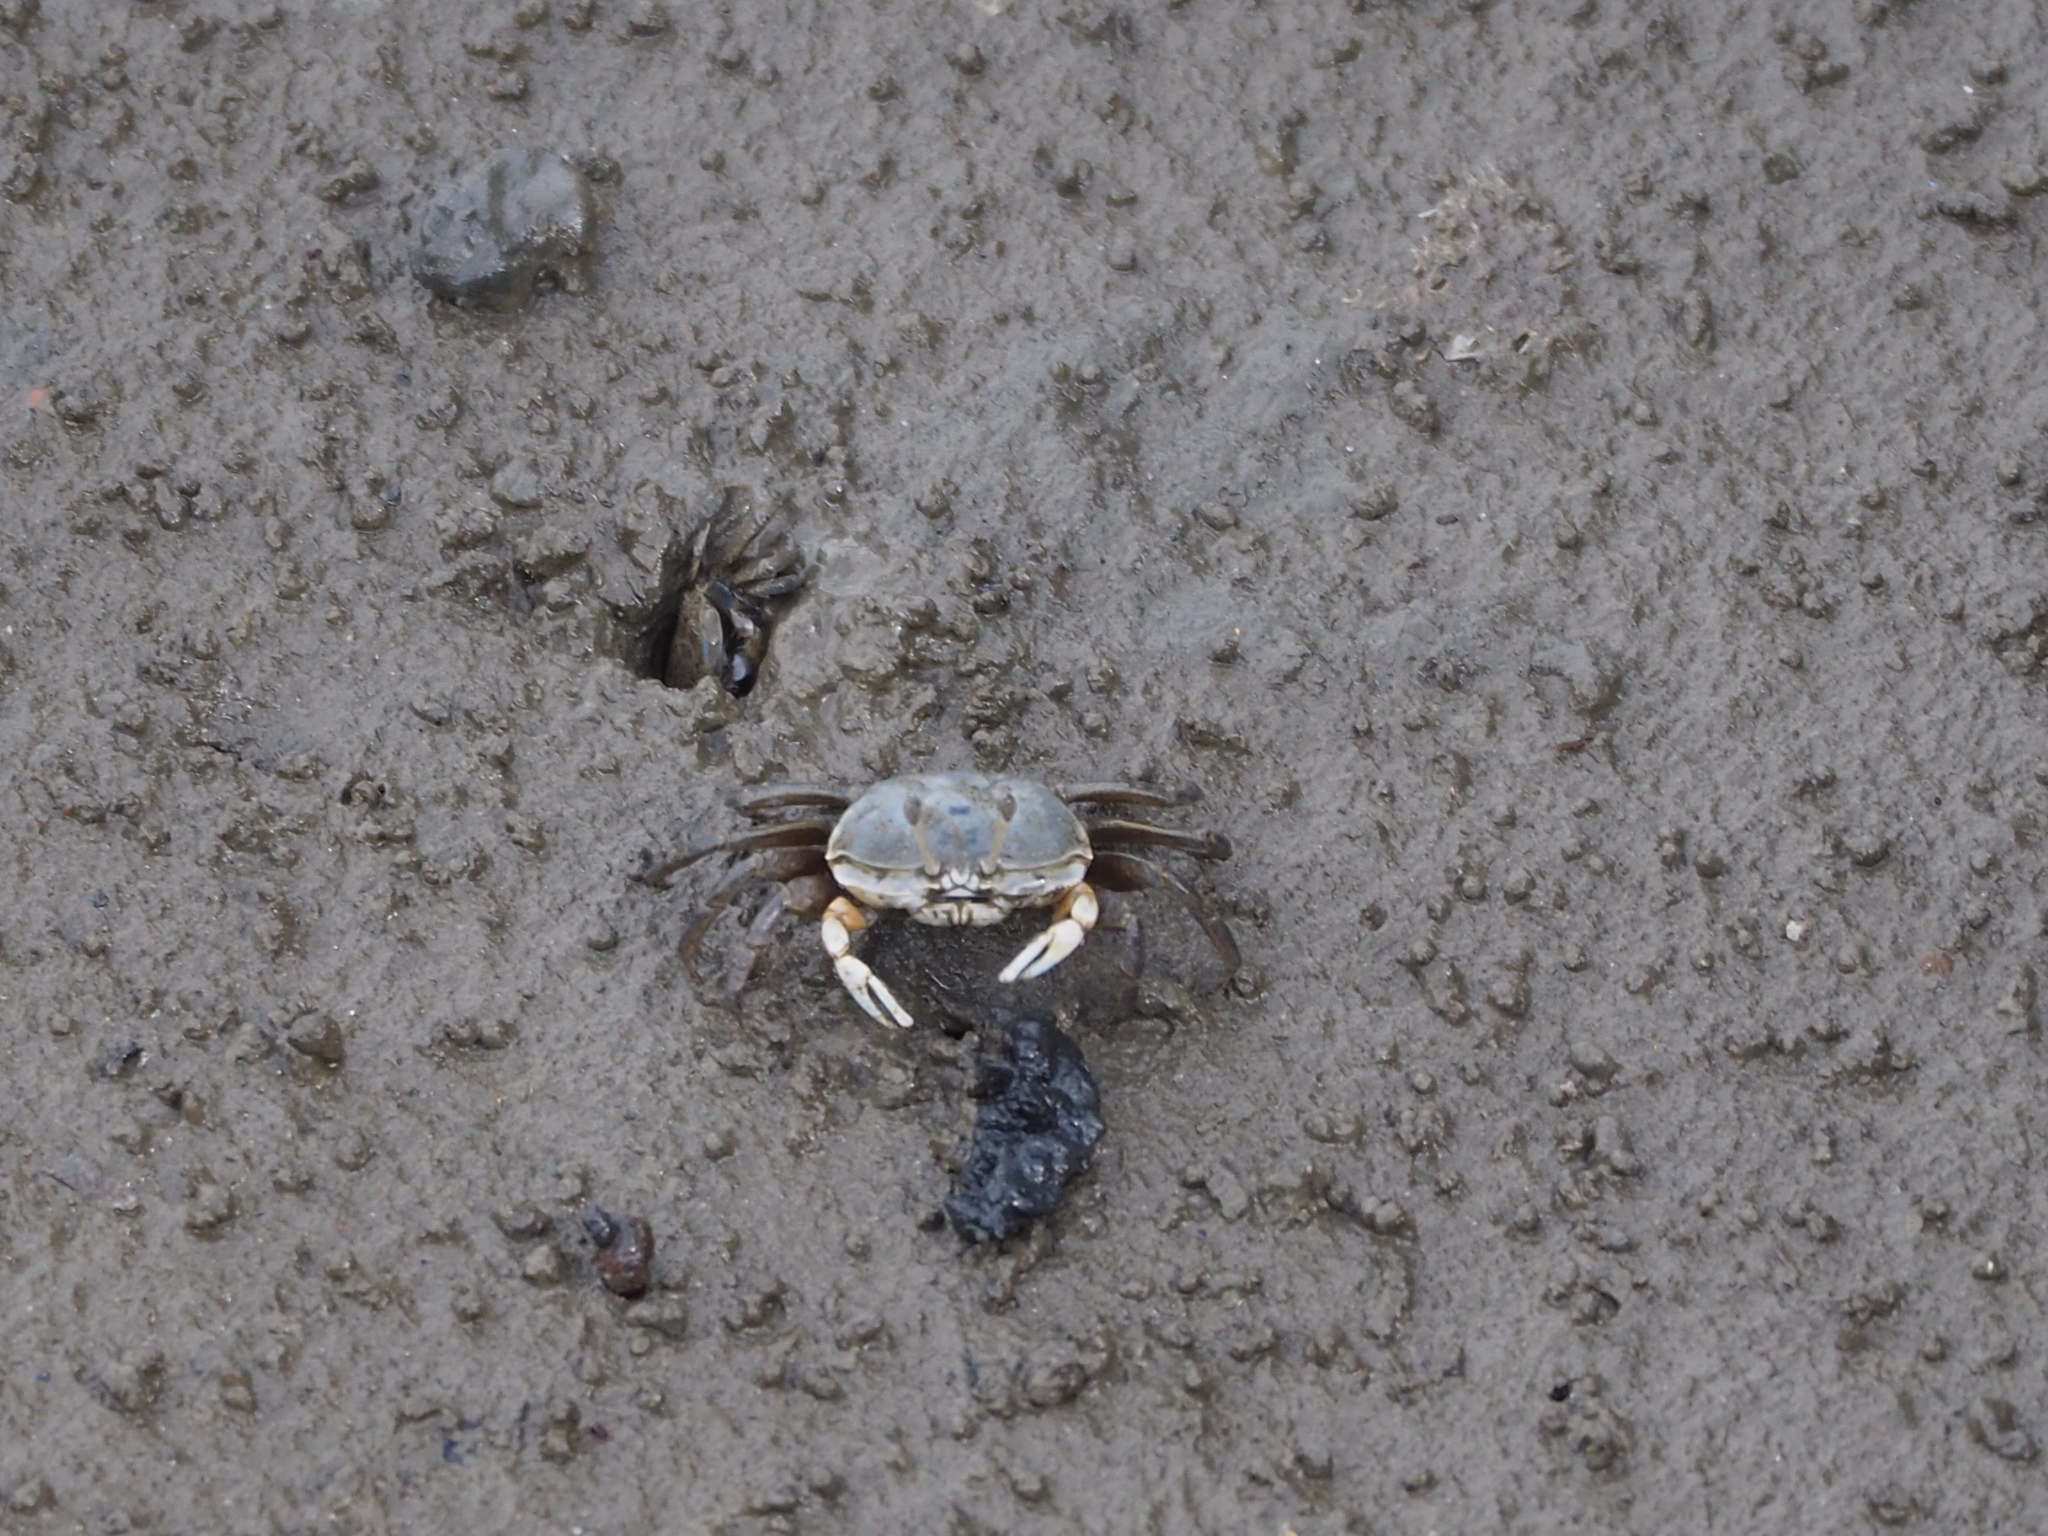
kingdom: Animalia
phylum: Arthropoda
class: Malacostraca
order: Decapoda
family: Ocypodidae
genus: Gelasimus
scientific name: Gelasimus borealis
